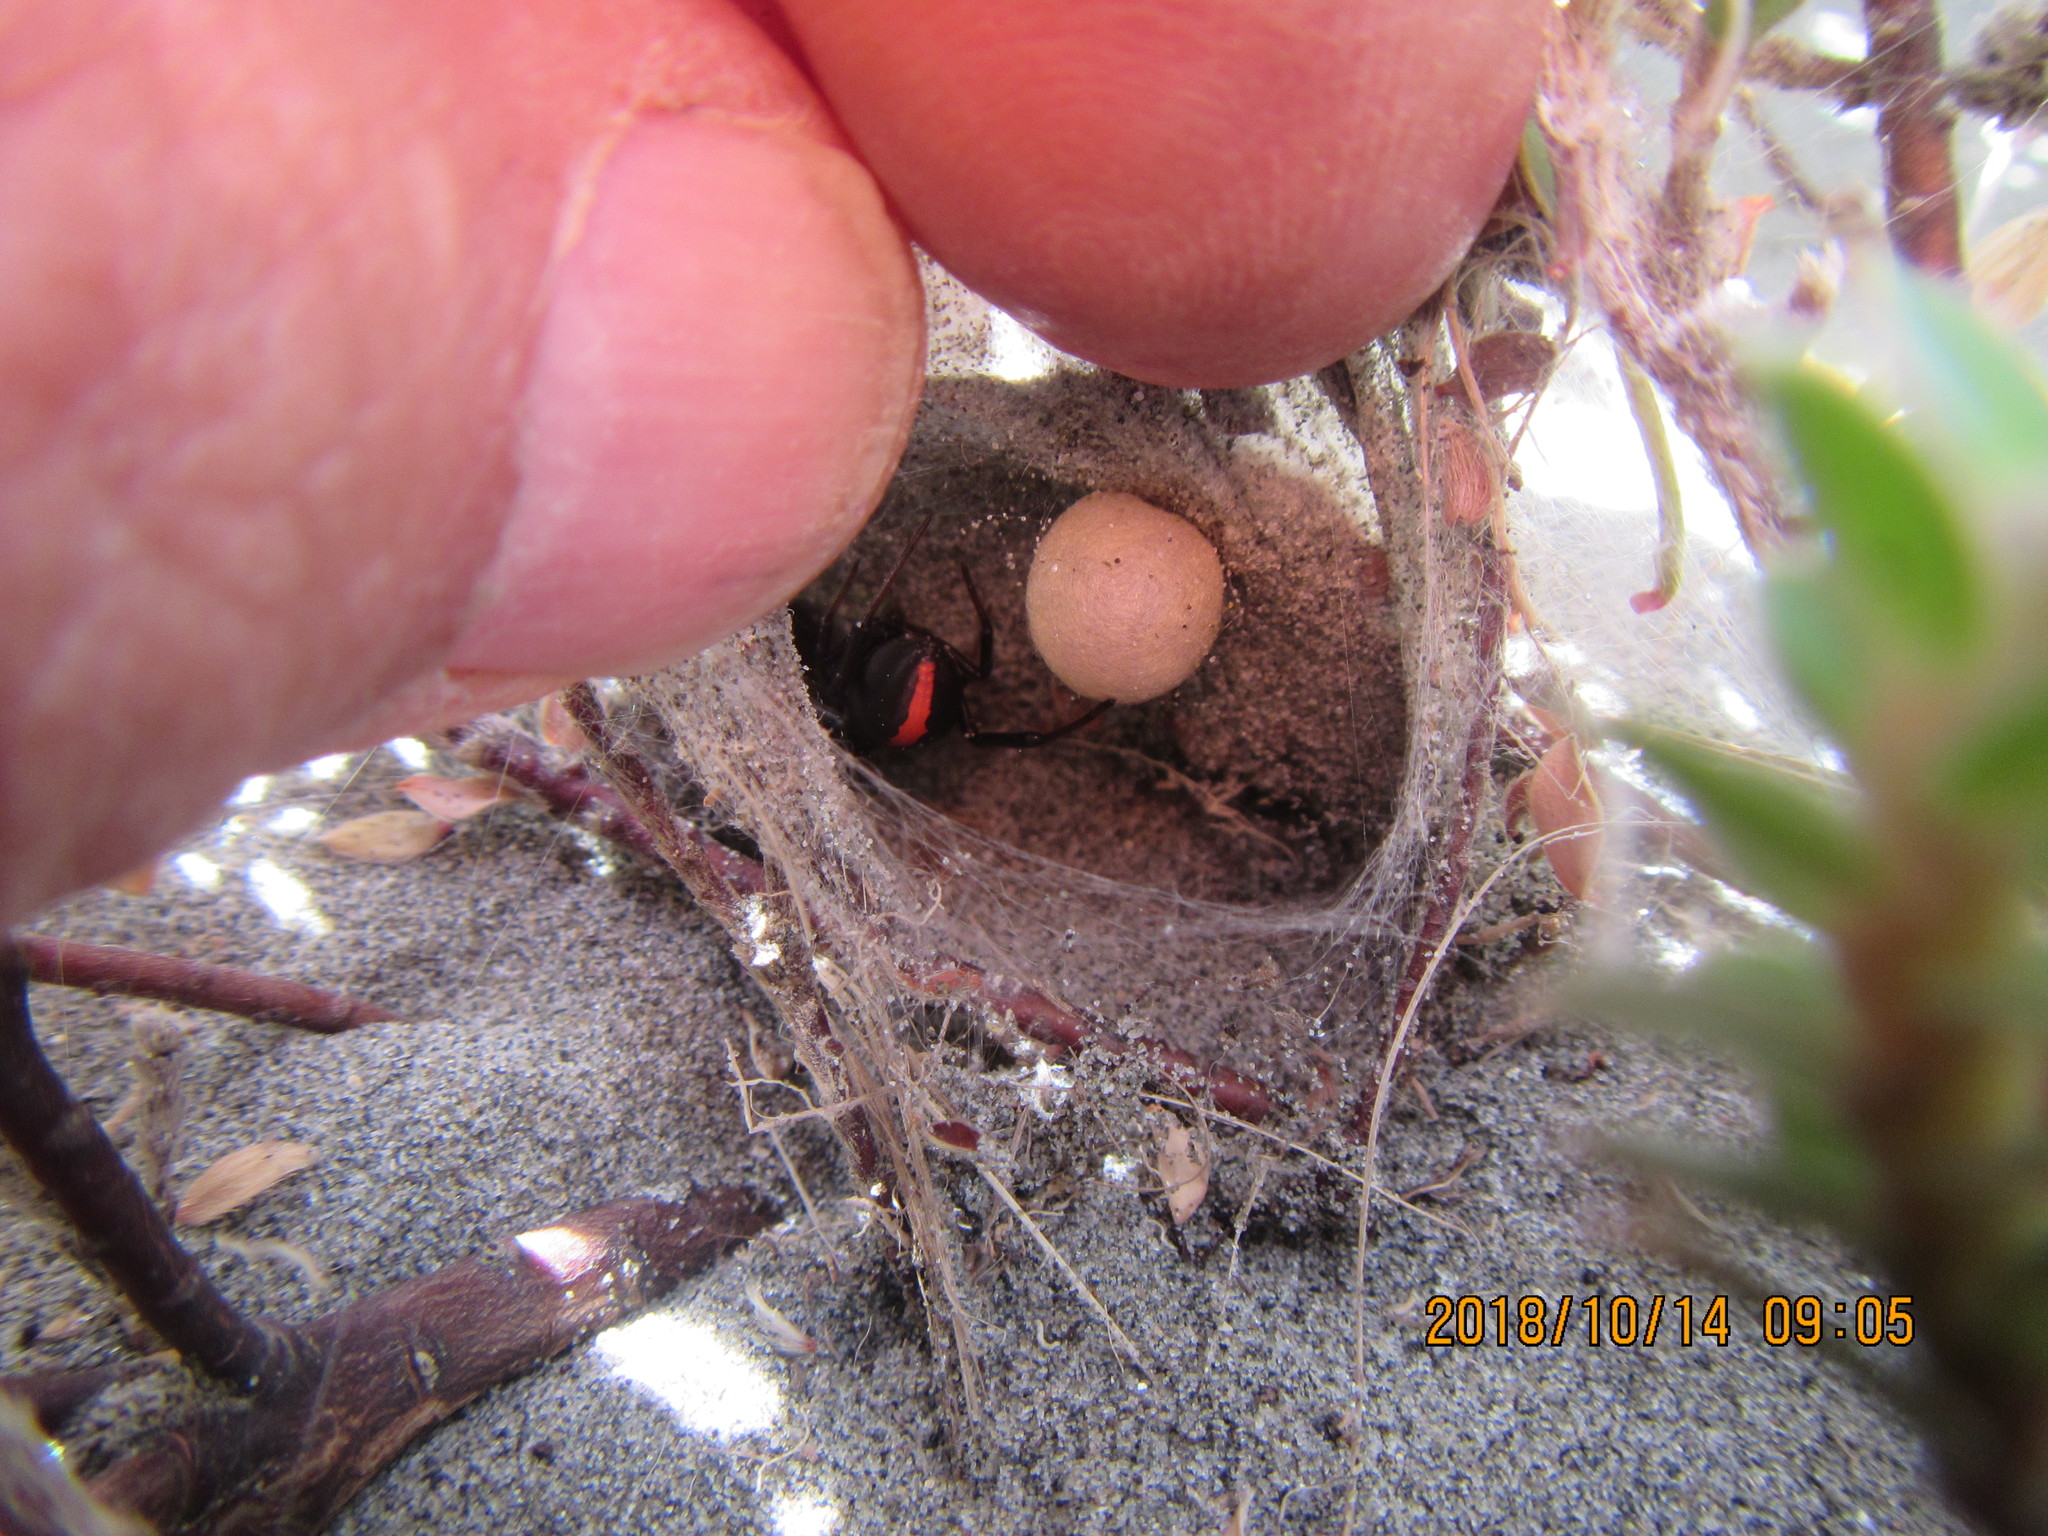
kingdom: Animalia
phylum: Arthropoda
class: Arachnida
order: Araneae
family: Theridiidae
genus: Latrodectus
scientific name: Latrodectus katipo
